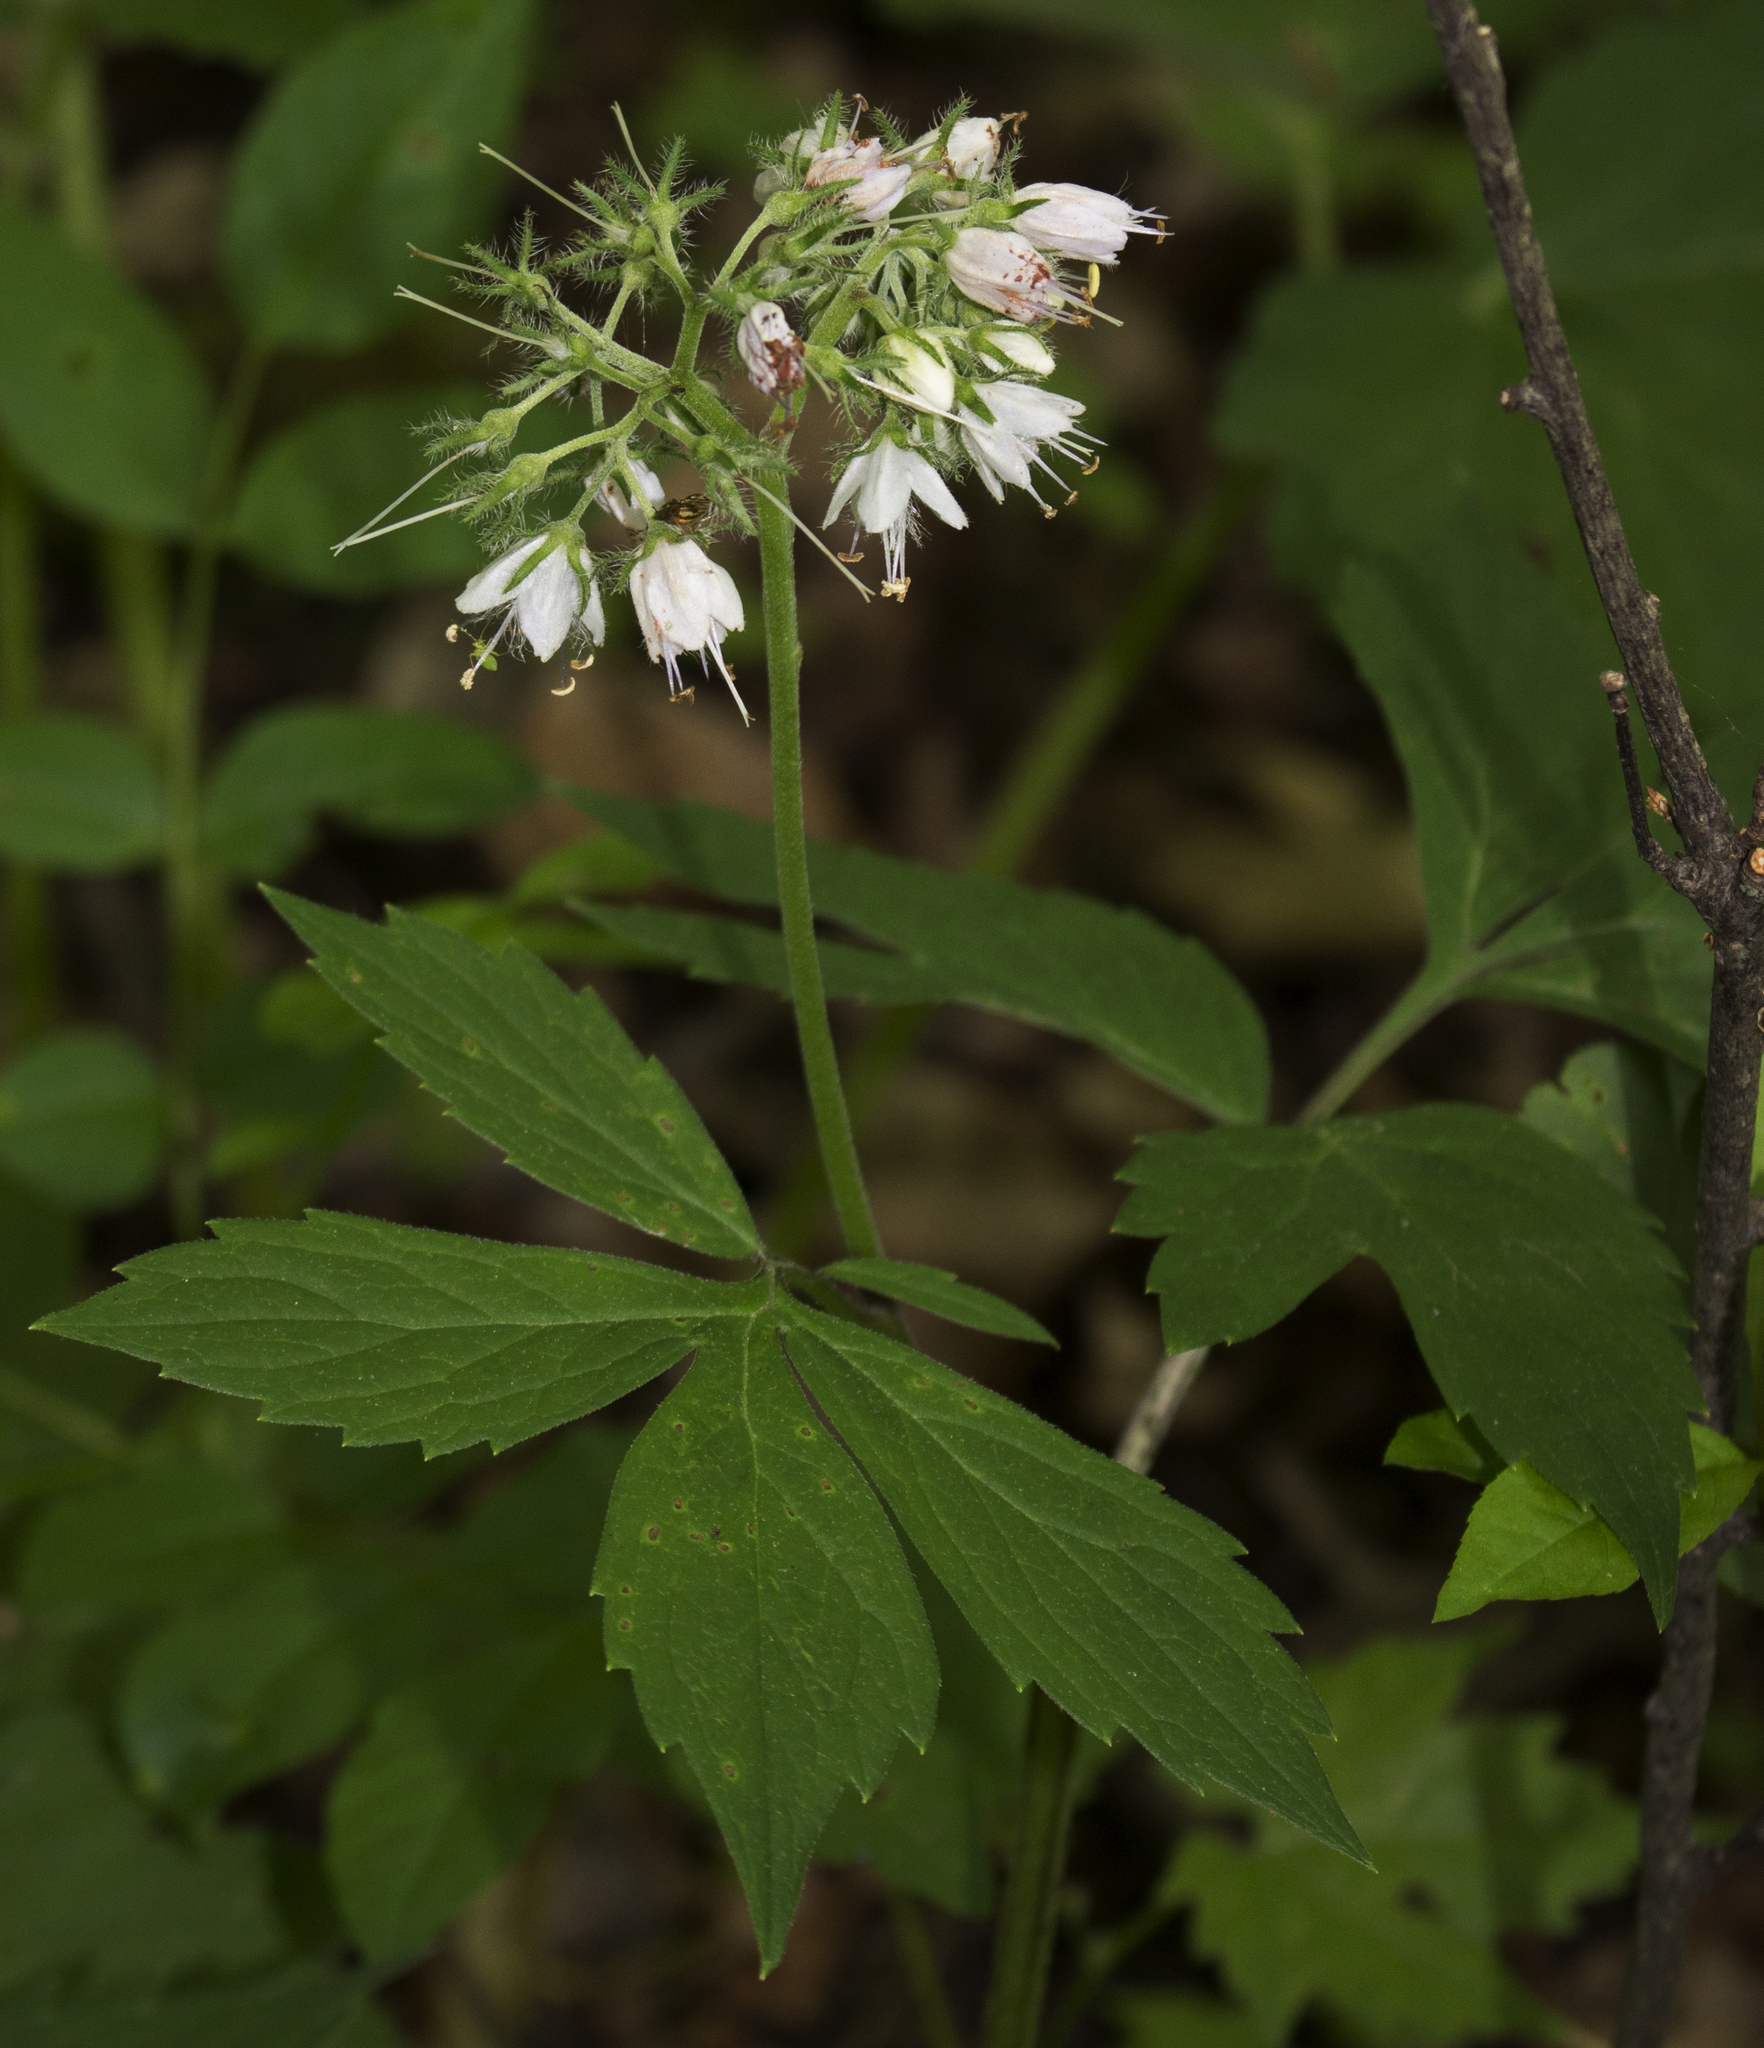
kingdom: Plantae
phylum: Tracheophyta
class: Magnoliopsida
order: Boraginales
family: Hydrophyllaceae
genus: Hydrophyllum
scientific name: Hydrophyllum virginianum
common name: Virginia waterleaf
